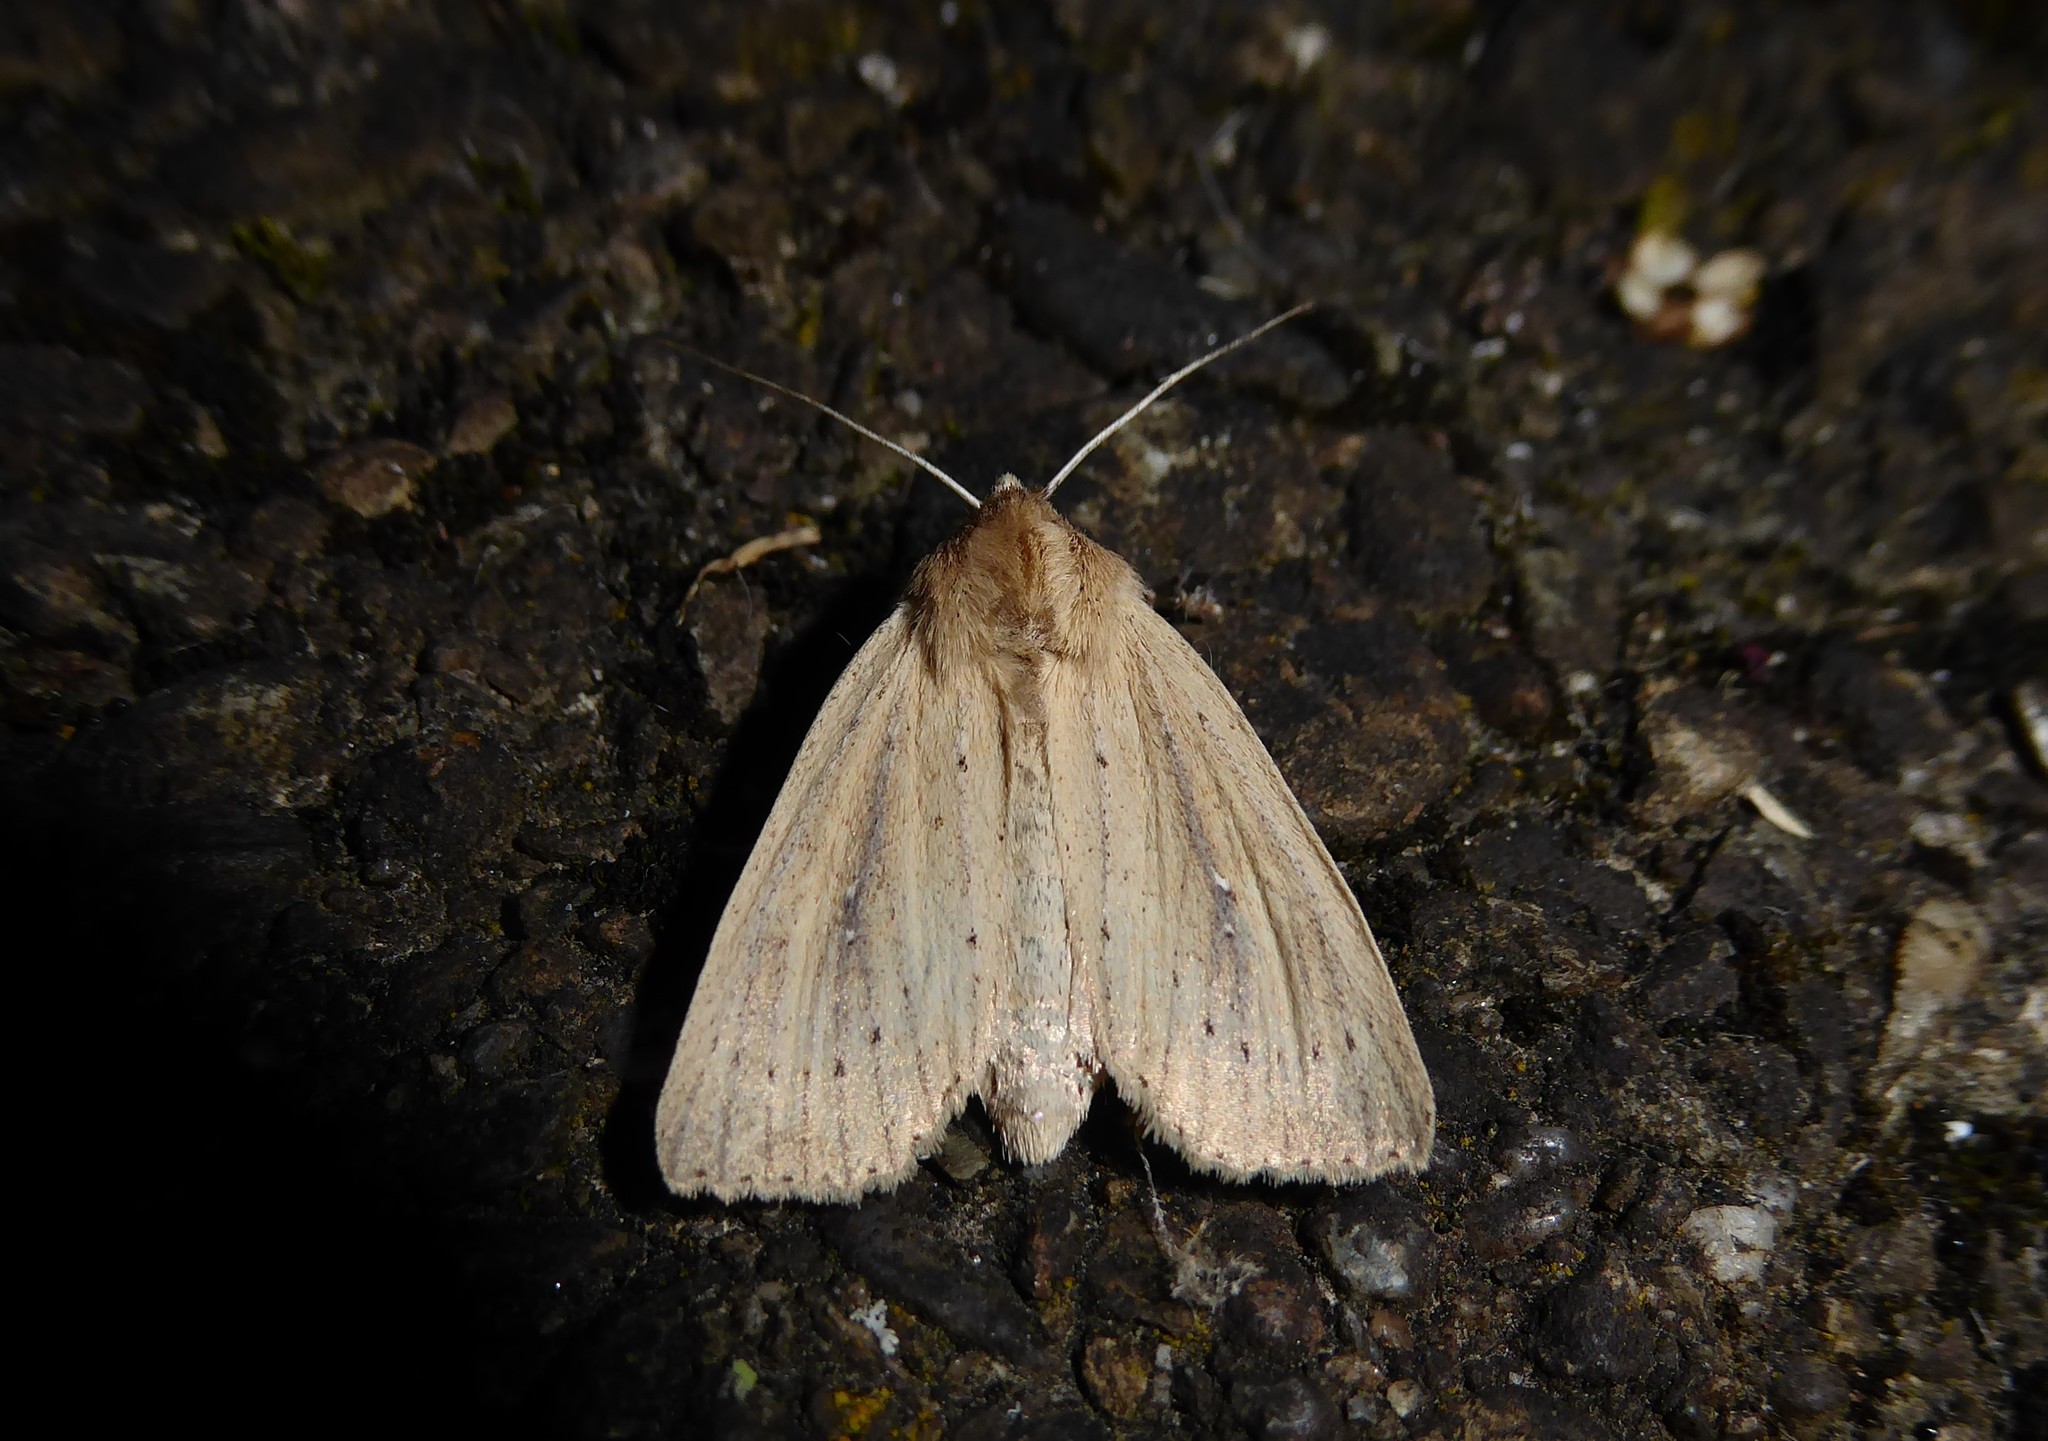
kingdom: Animalia
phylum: Arthropoda
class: Insecta
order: Lepidoptera
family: Noctuidae
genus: Ichneutica
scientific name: Ichneutica
